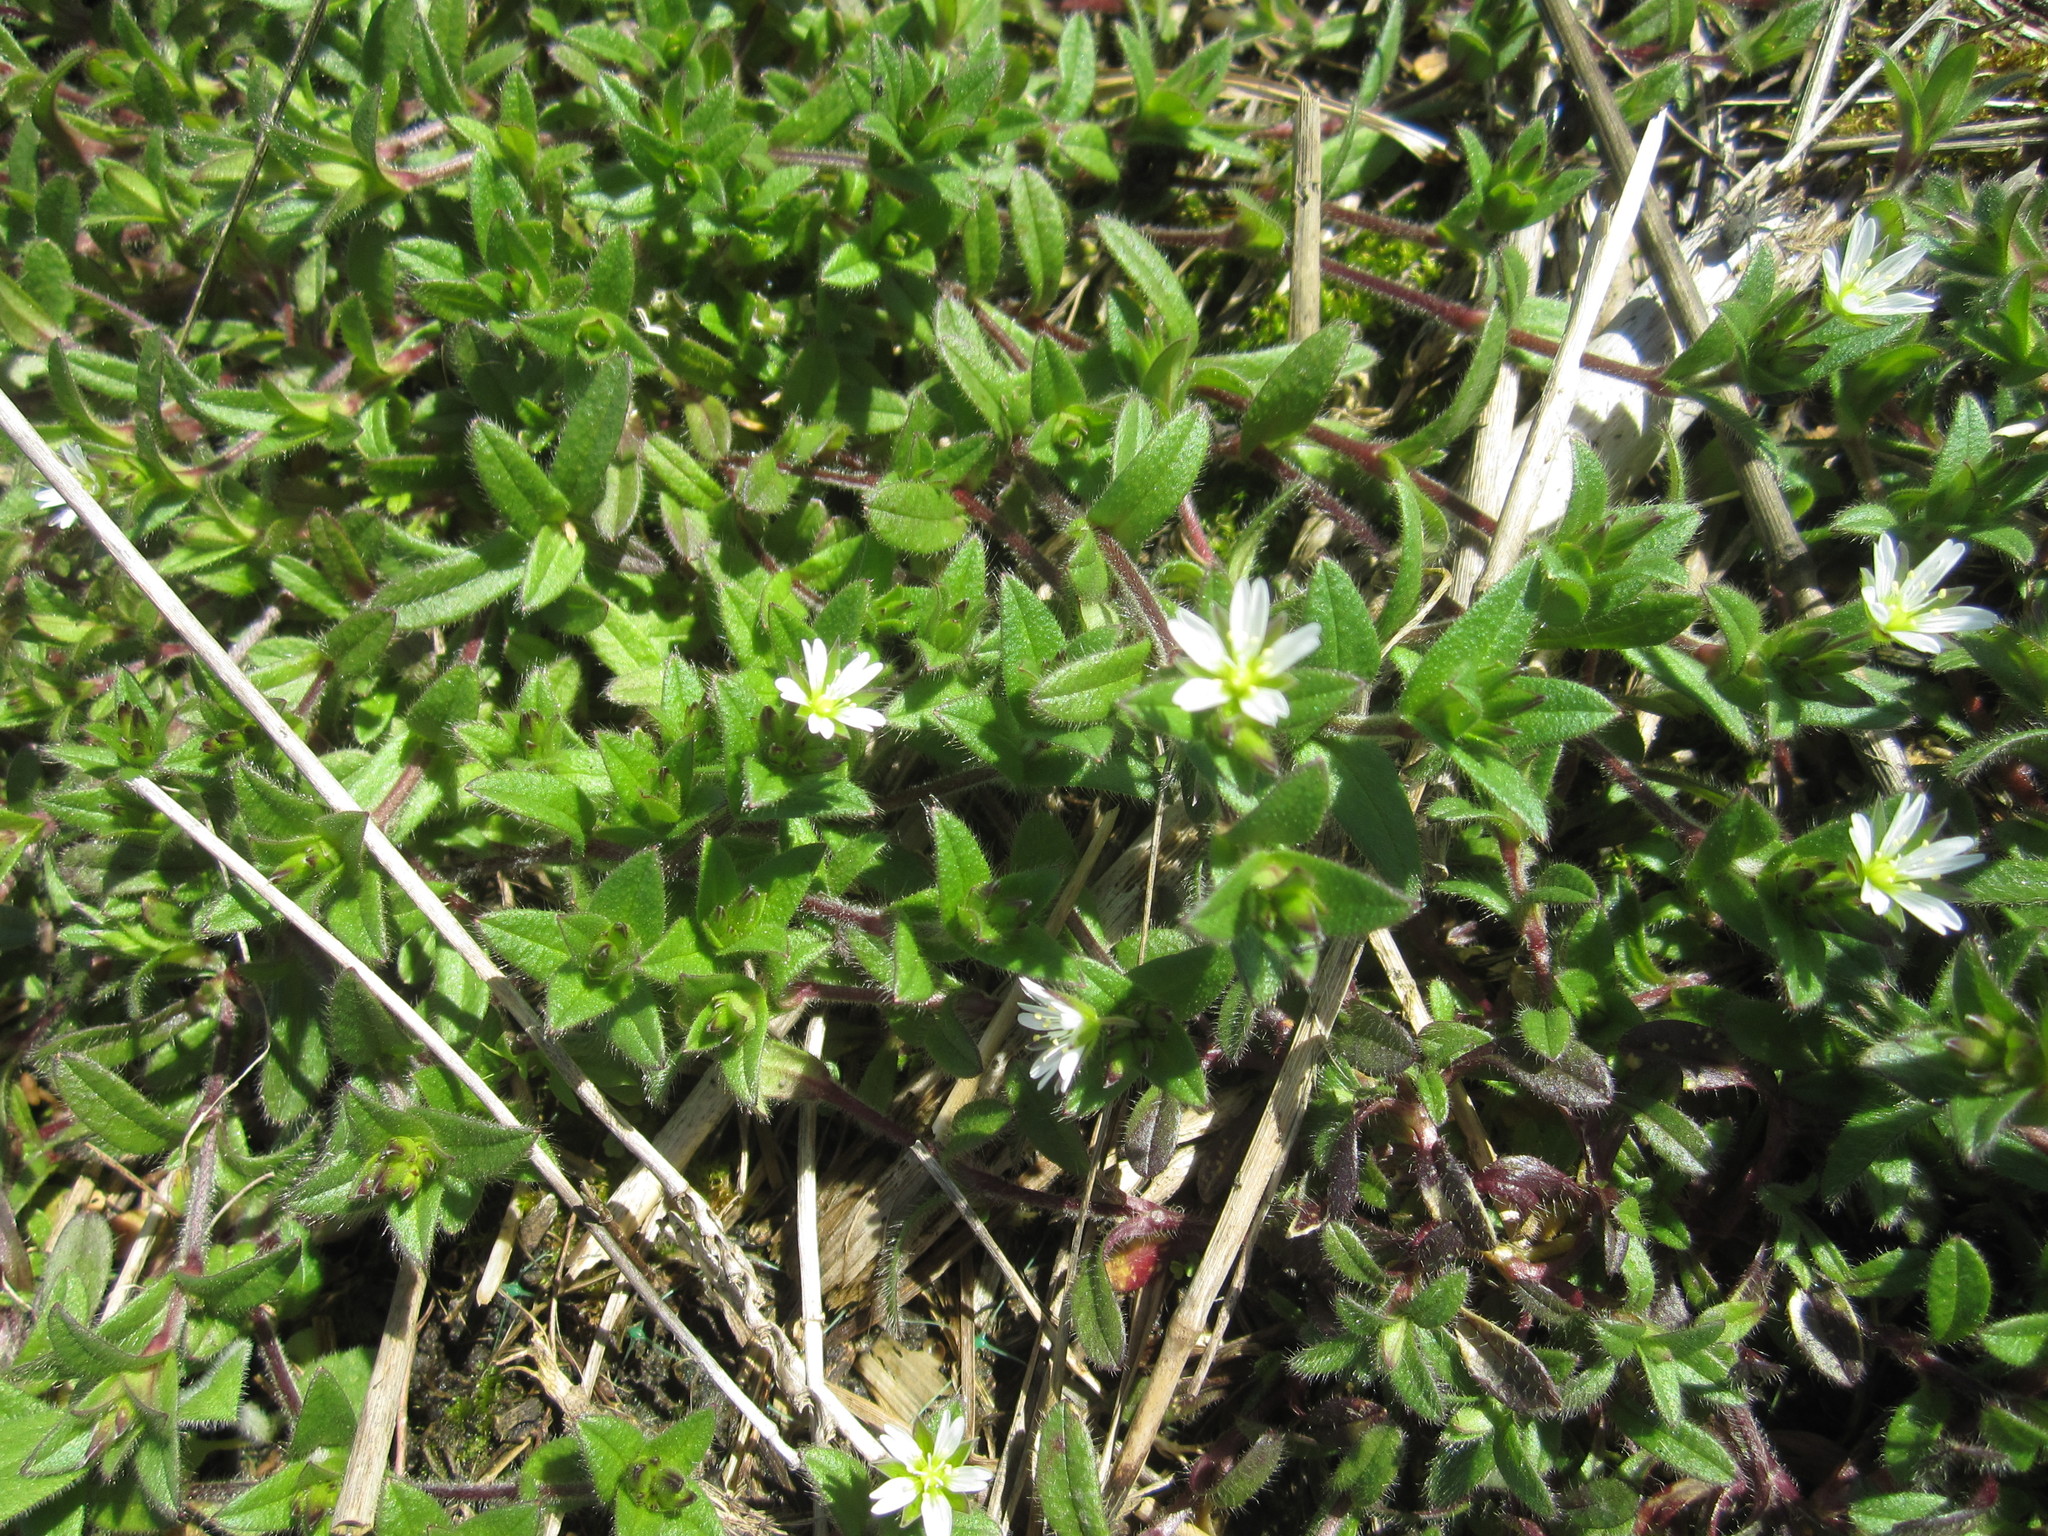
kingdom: Plantae
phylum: Tracheophyta
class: Magnoliopsida
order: Caryophyllales
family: Caryophyllaceae
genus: Cerastium
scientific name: Cerastium holosteoides
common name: Big chickweed
